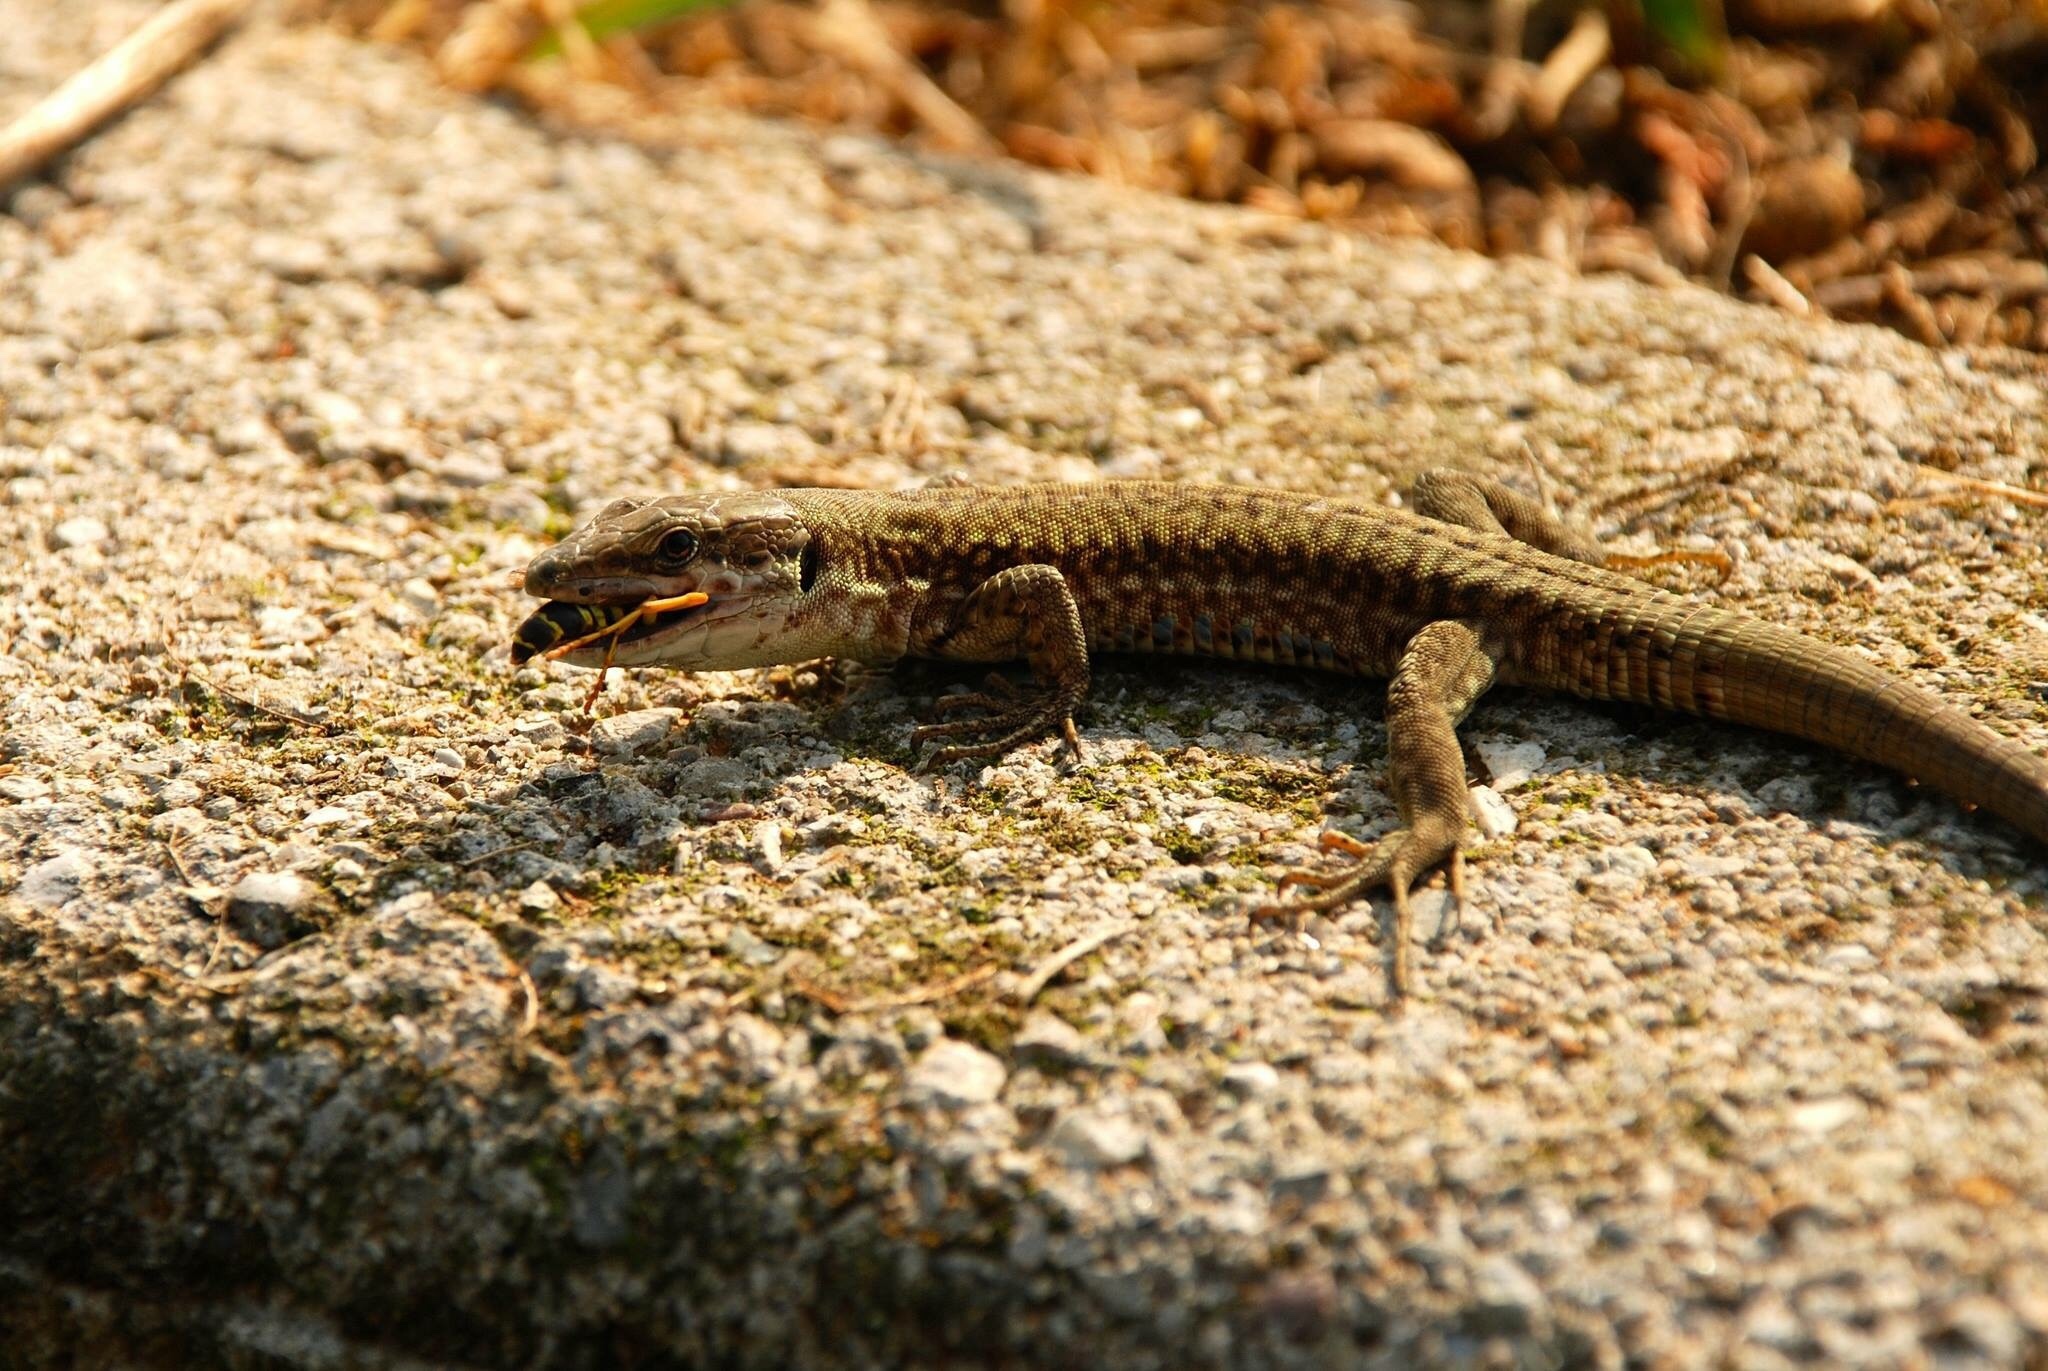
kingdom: Animalia
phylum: Chordata
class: Squamata
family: Lacertidae
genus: Podarcis
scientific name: Podarcis muralis
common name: Common wall lizard
